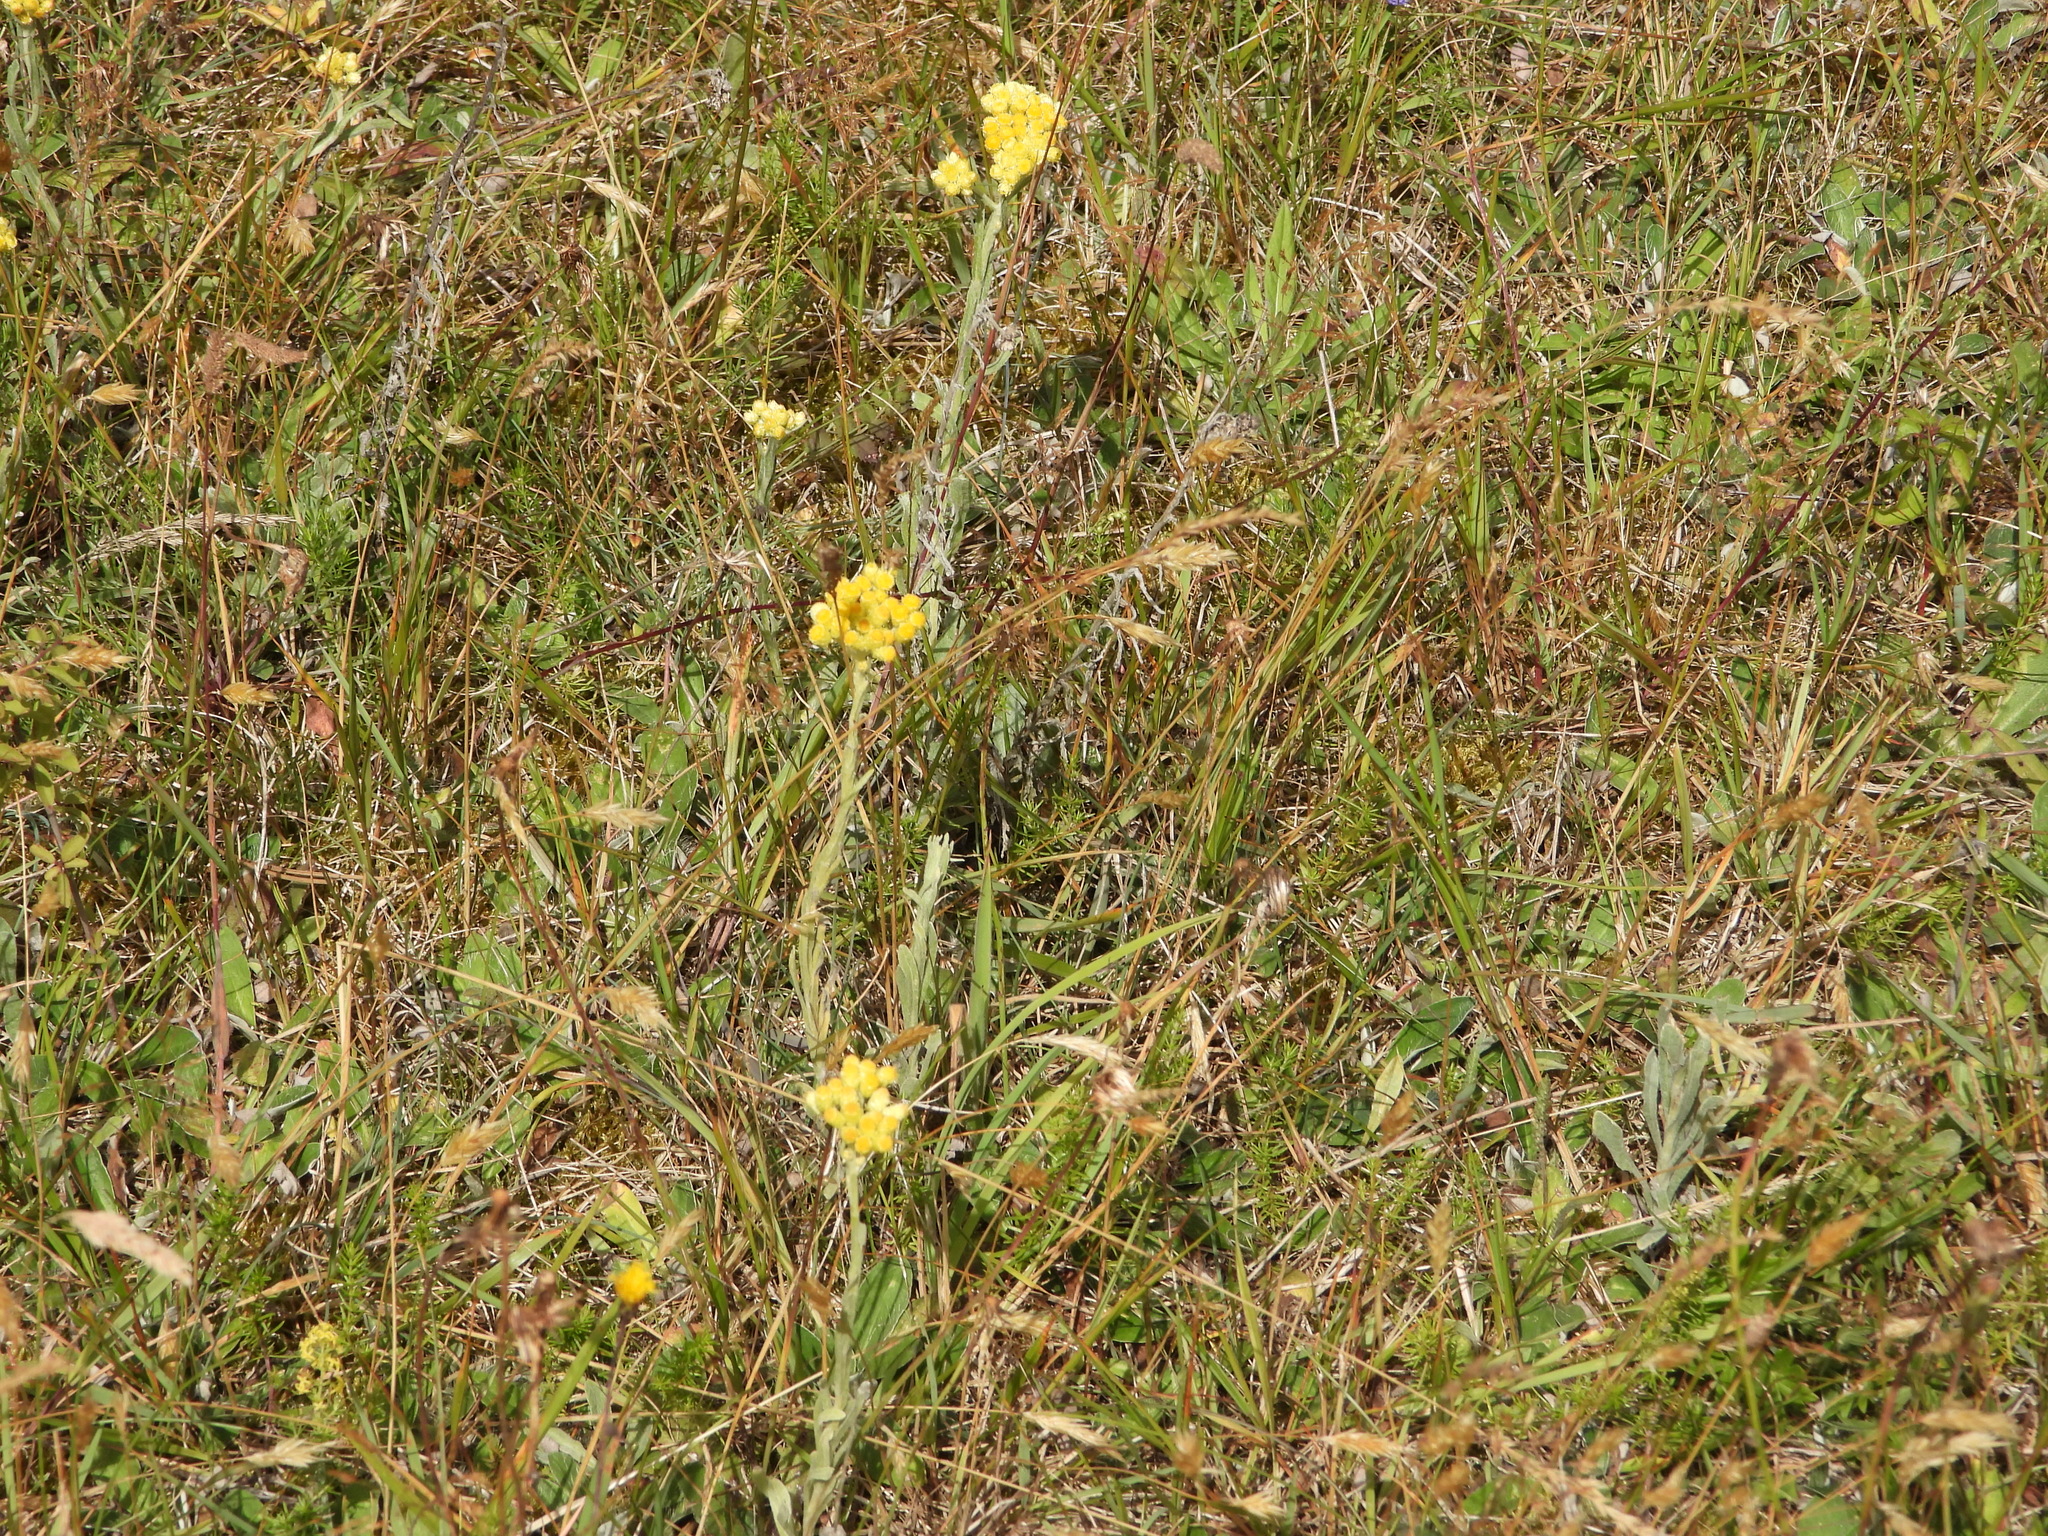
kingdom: Plantae
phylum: Tracheophyta
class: Magnoliopsida
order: Asterales
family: Asteraceae
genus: Helichrysum
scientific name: Helichrysum arenarium
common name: Strawflower
